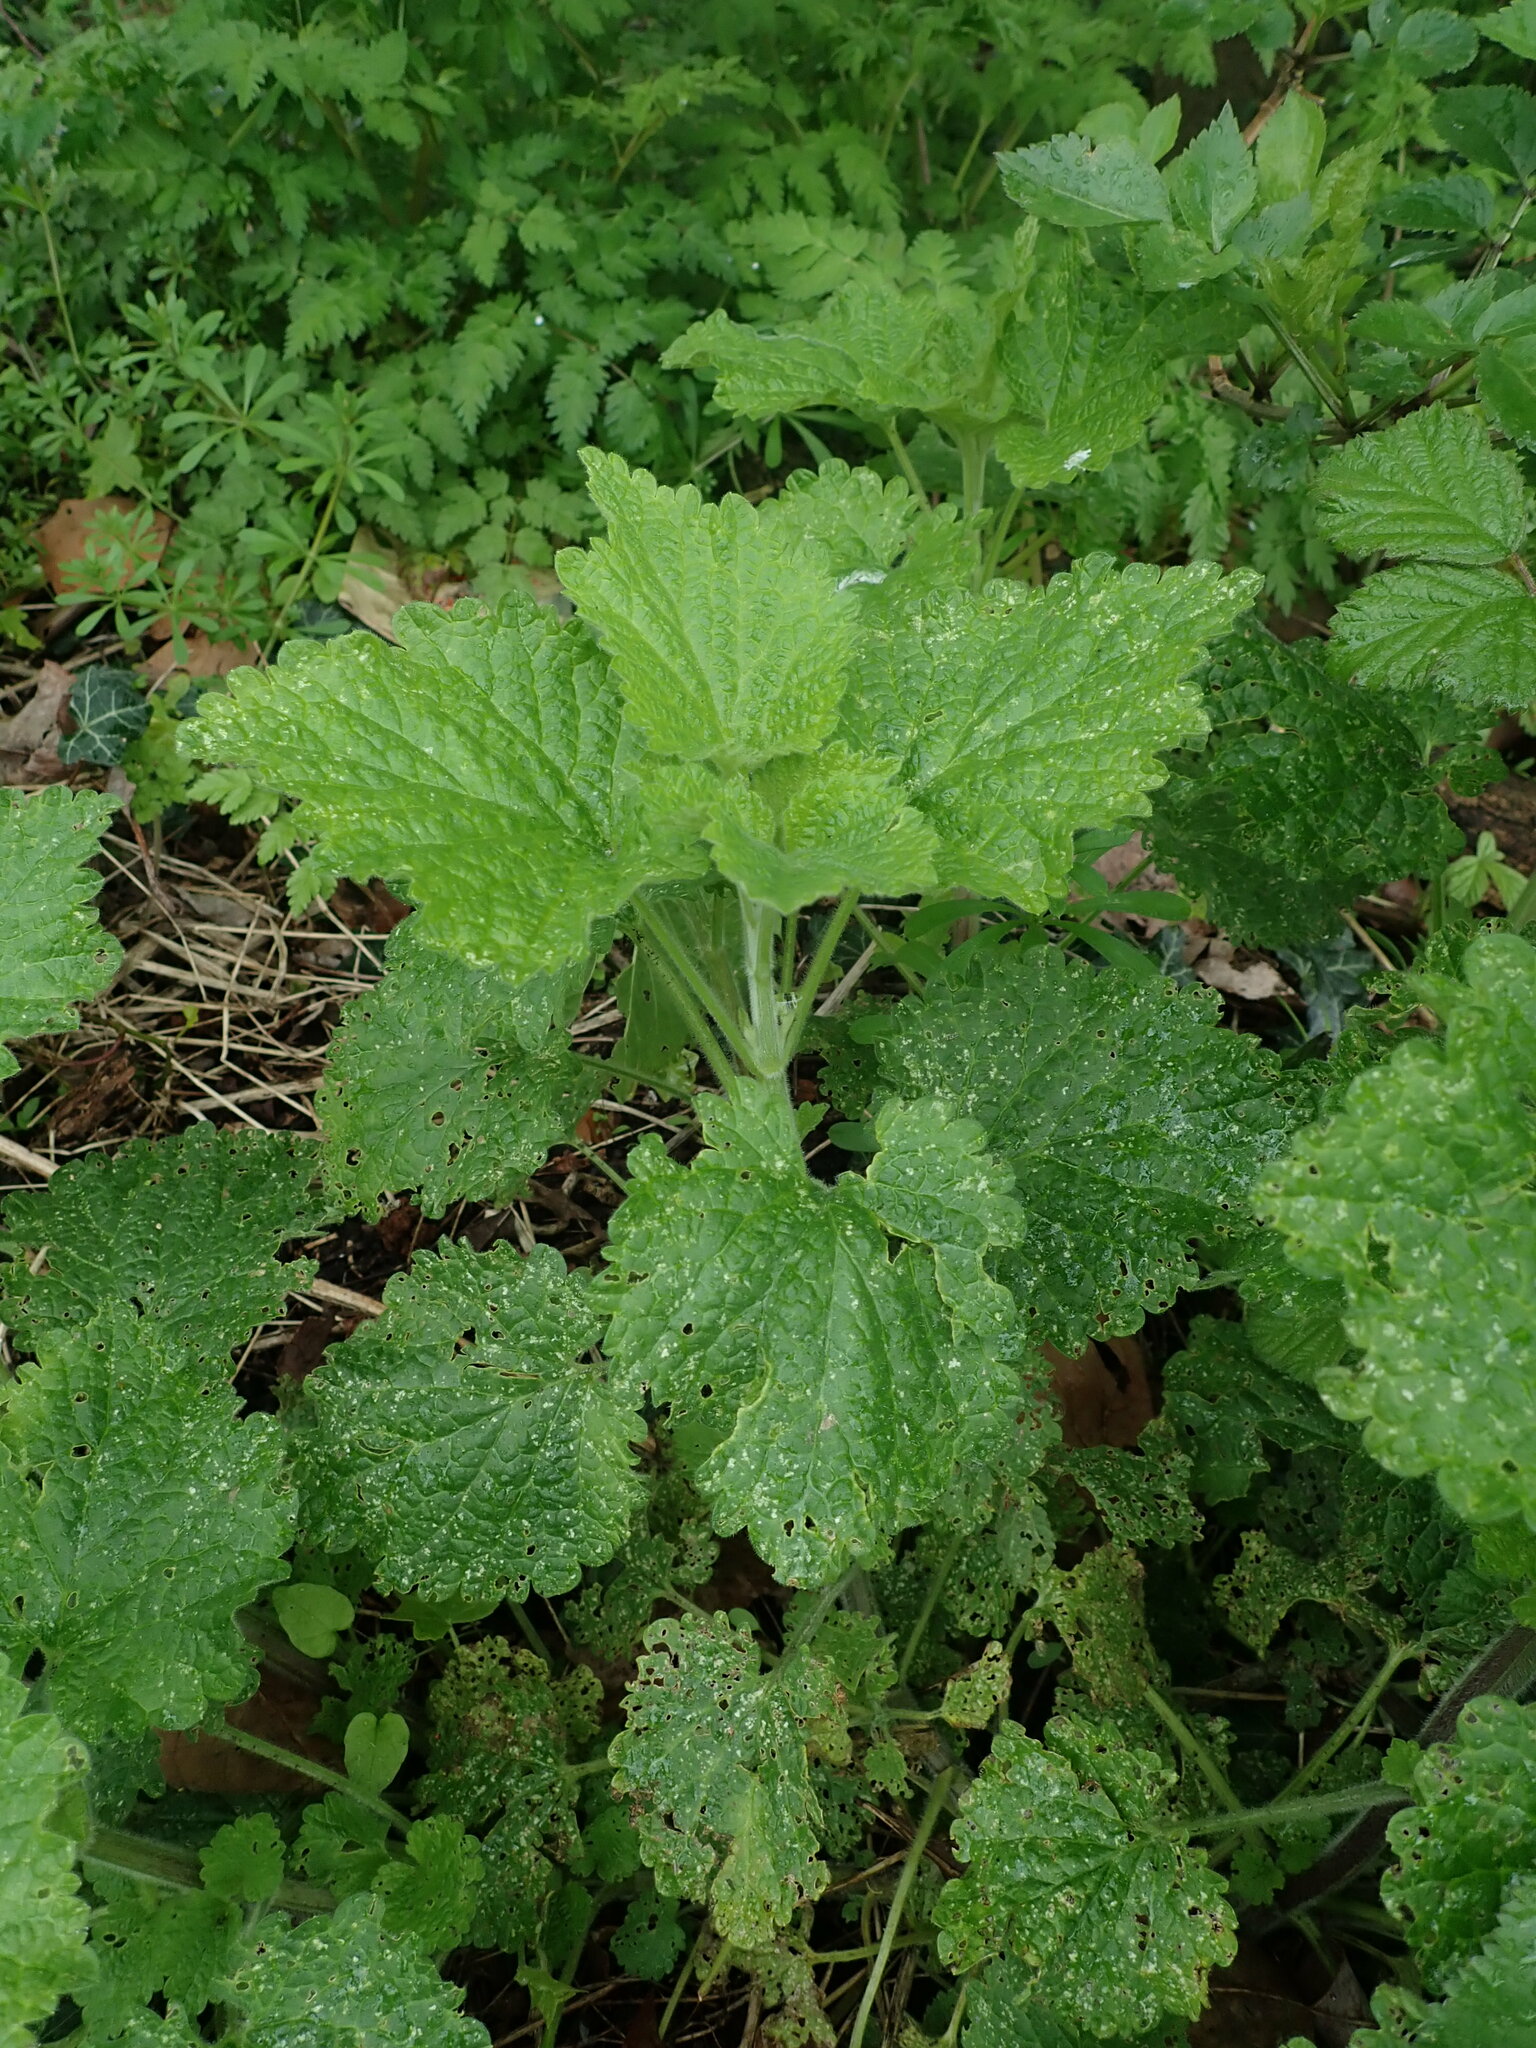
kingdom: Plantae
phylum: Tracheophyta
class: Magnoliopsida
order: Lamiales
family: Lamiaceae
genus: Ballota
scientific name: Ballota nigra
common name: Black horehound
